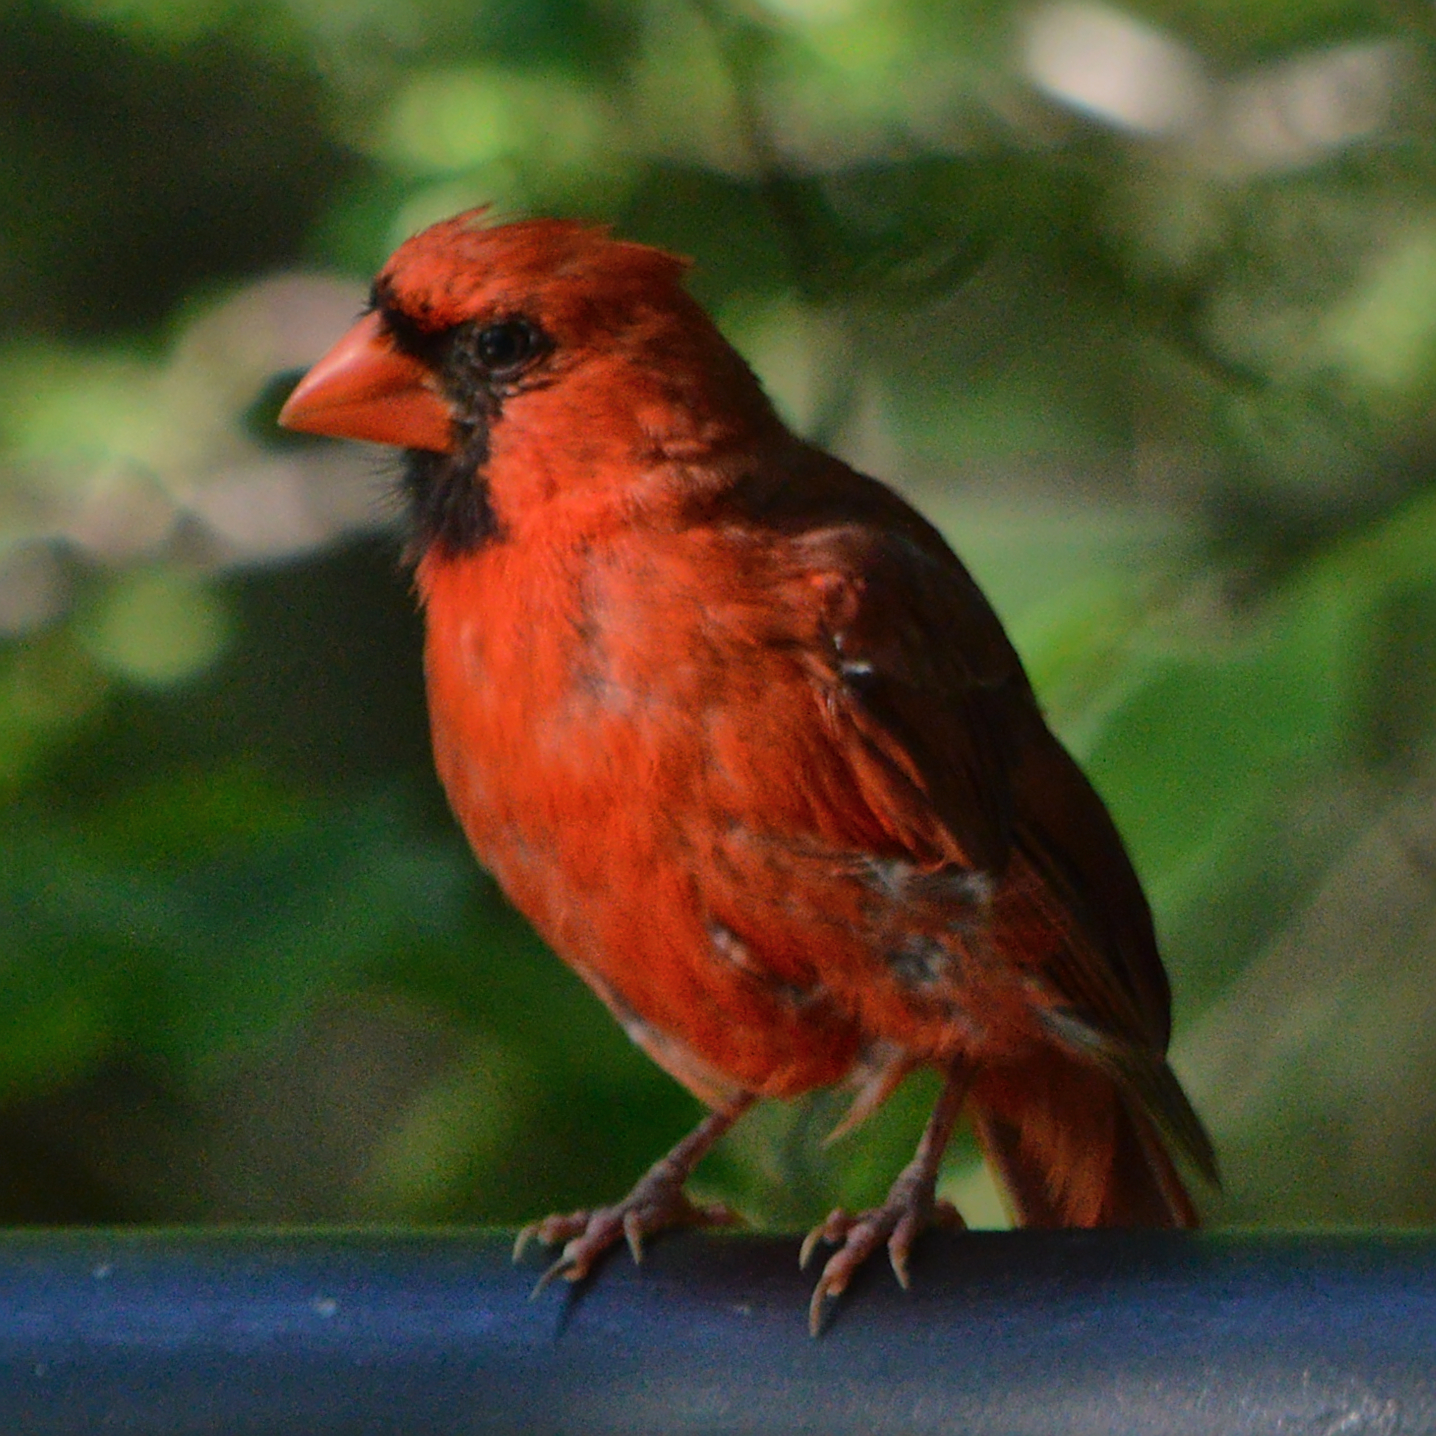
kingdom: Animalia
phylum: Chordata
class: Aves
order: Passeriformes
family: Cardinalidae
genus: Cardinalis
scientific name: Cardinalis cardinalis
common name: Northern cardinal
